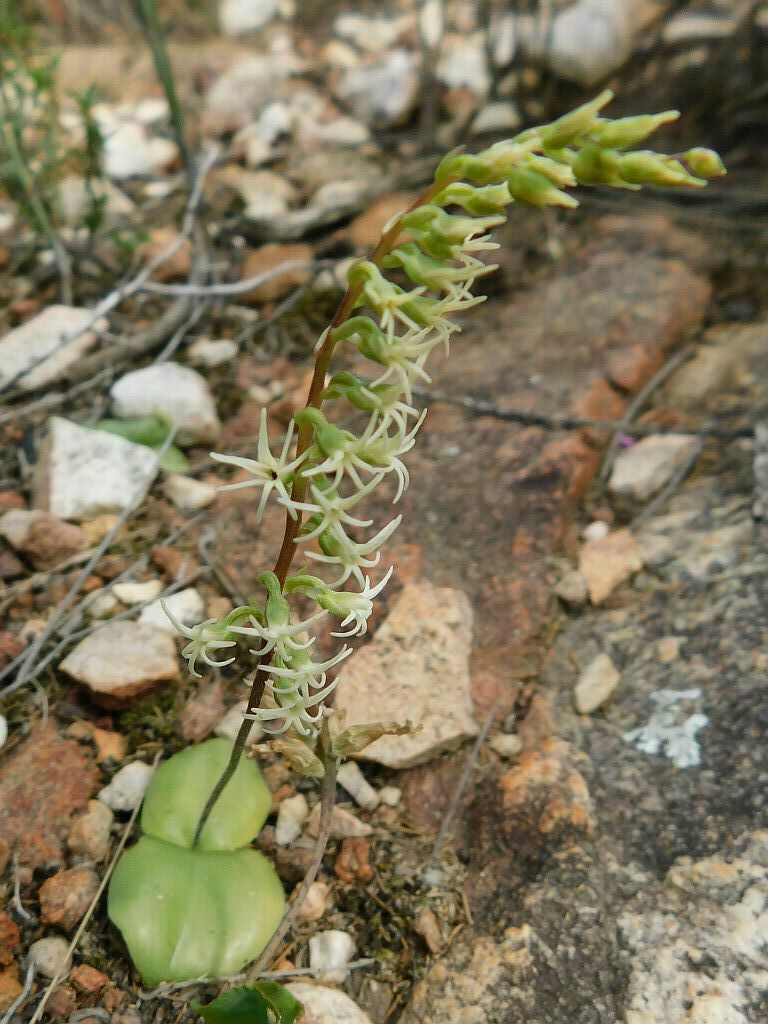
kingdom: Plantae
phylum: Tracheophyta
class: Liliopsida
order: Asparagales
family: Orchidaceae
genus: Holothrix
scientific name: Holothrix secunda
